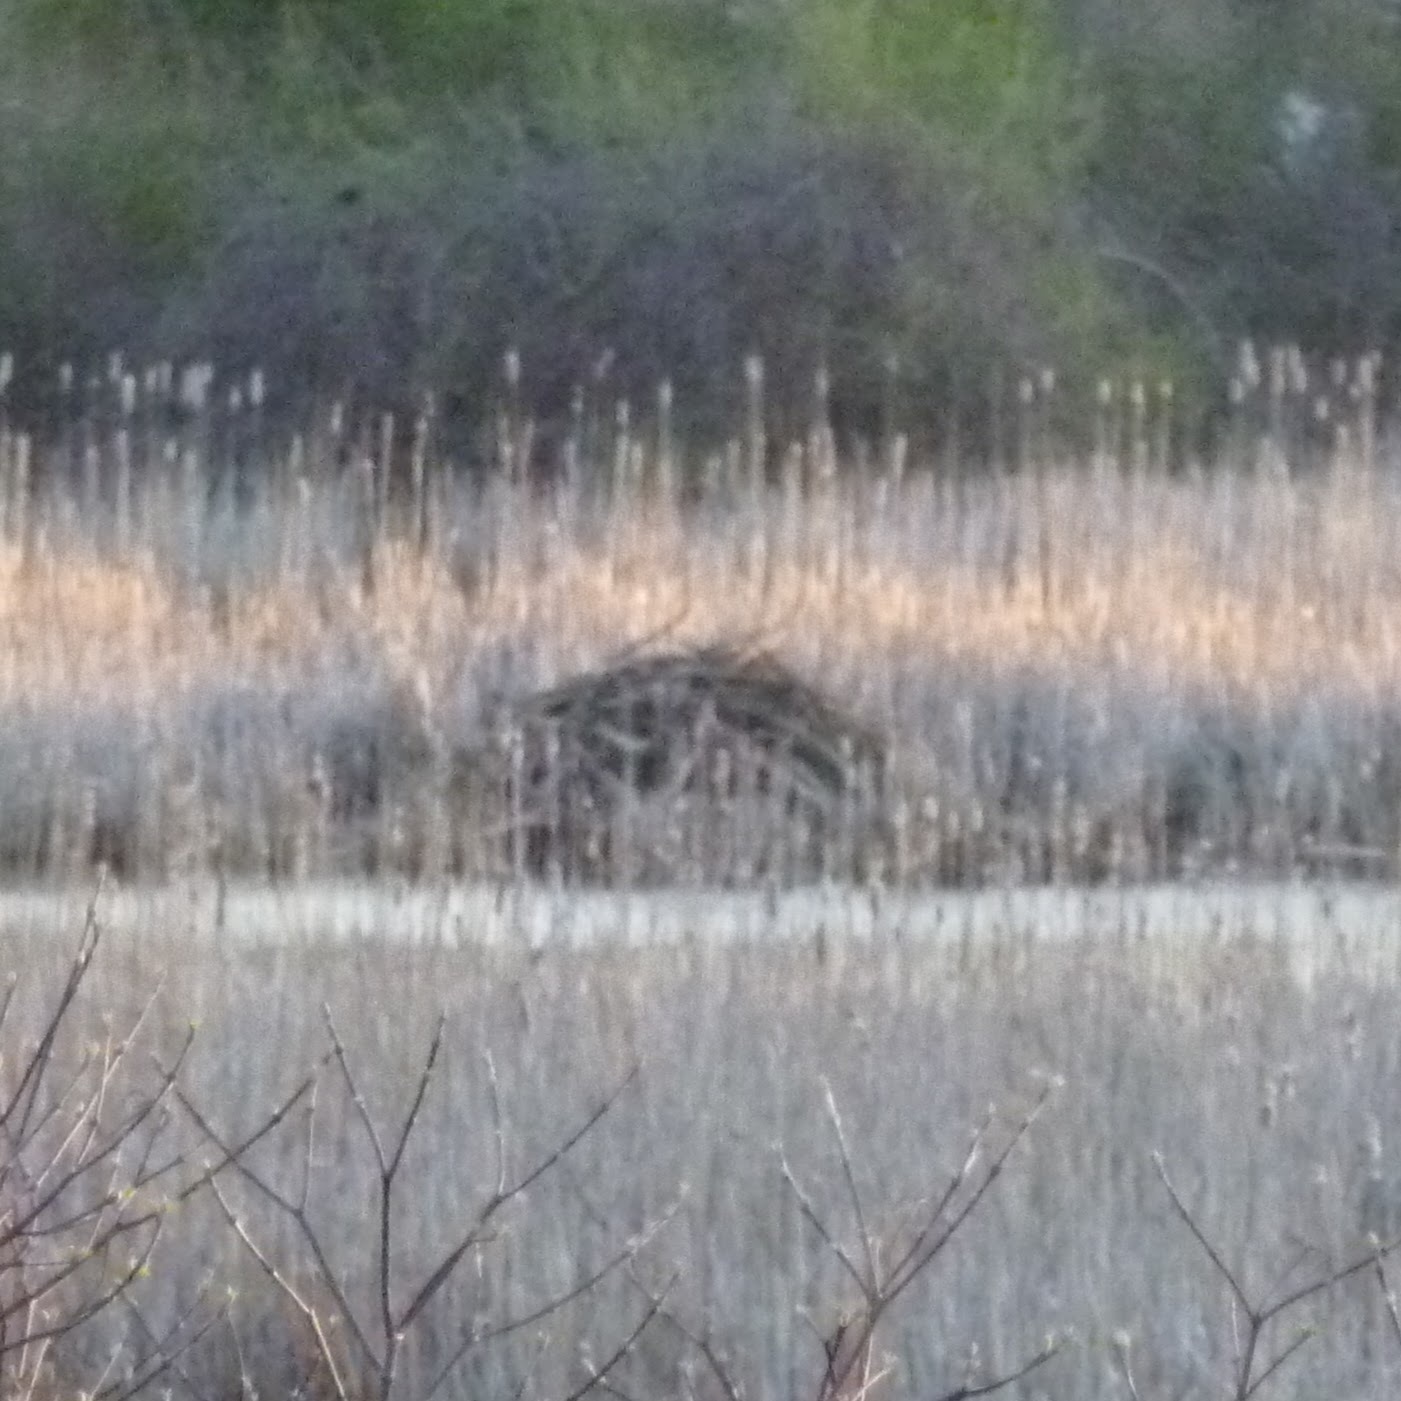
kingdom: Animalia
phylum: Chordata
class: Mammalia
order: Rodentia
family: Castoridae
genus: Castor
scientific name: Castor canadensis
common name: American beaver
